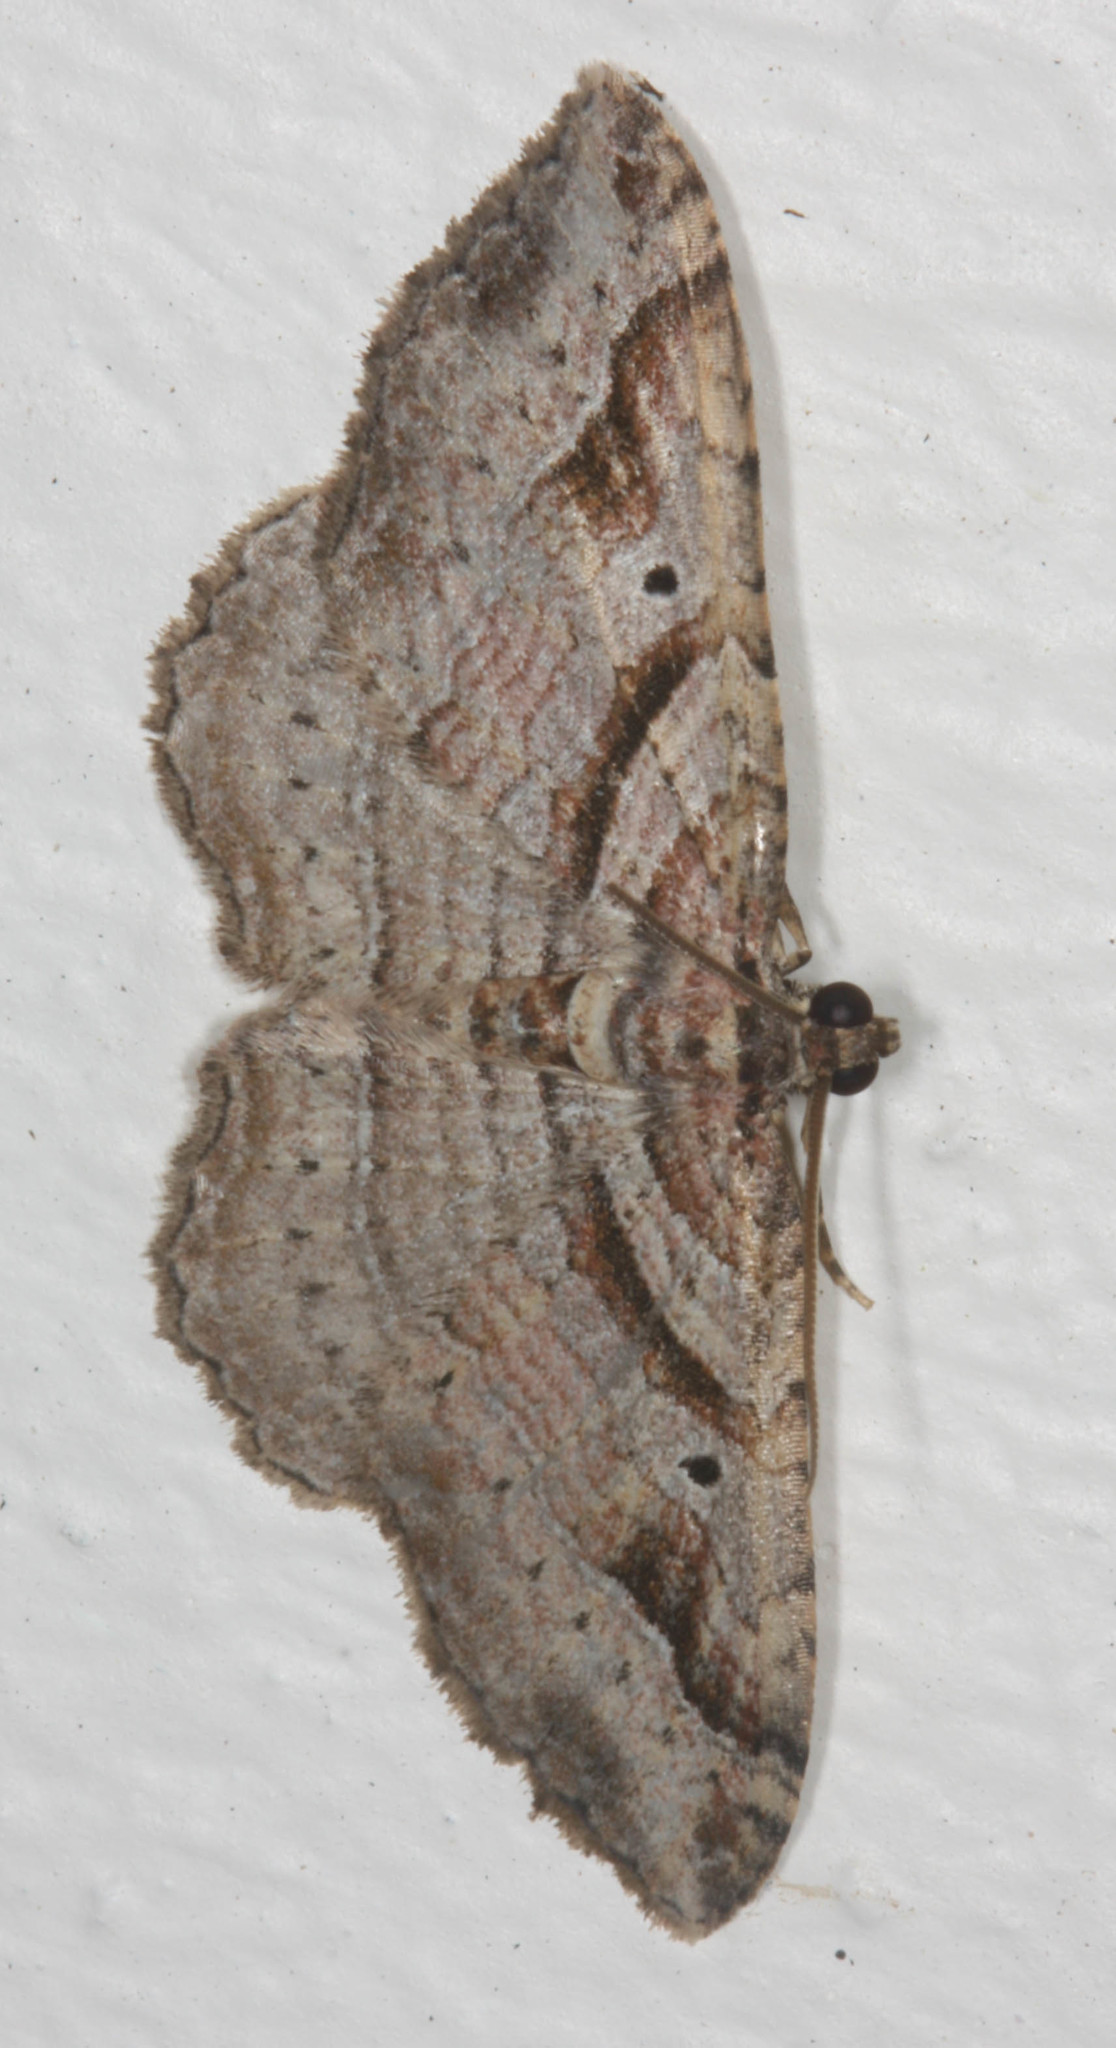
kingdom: Animalia
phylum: Arthropoda
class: Insecta
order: Lepidoptera
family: Geometridae
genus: Costaconvexa
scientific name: Costaconvexa centrostrigaria
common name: Bent-line carpet
